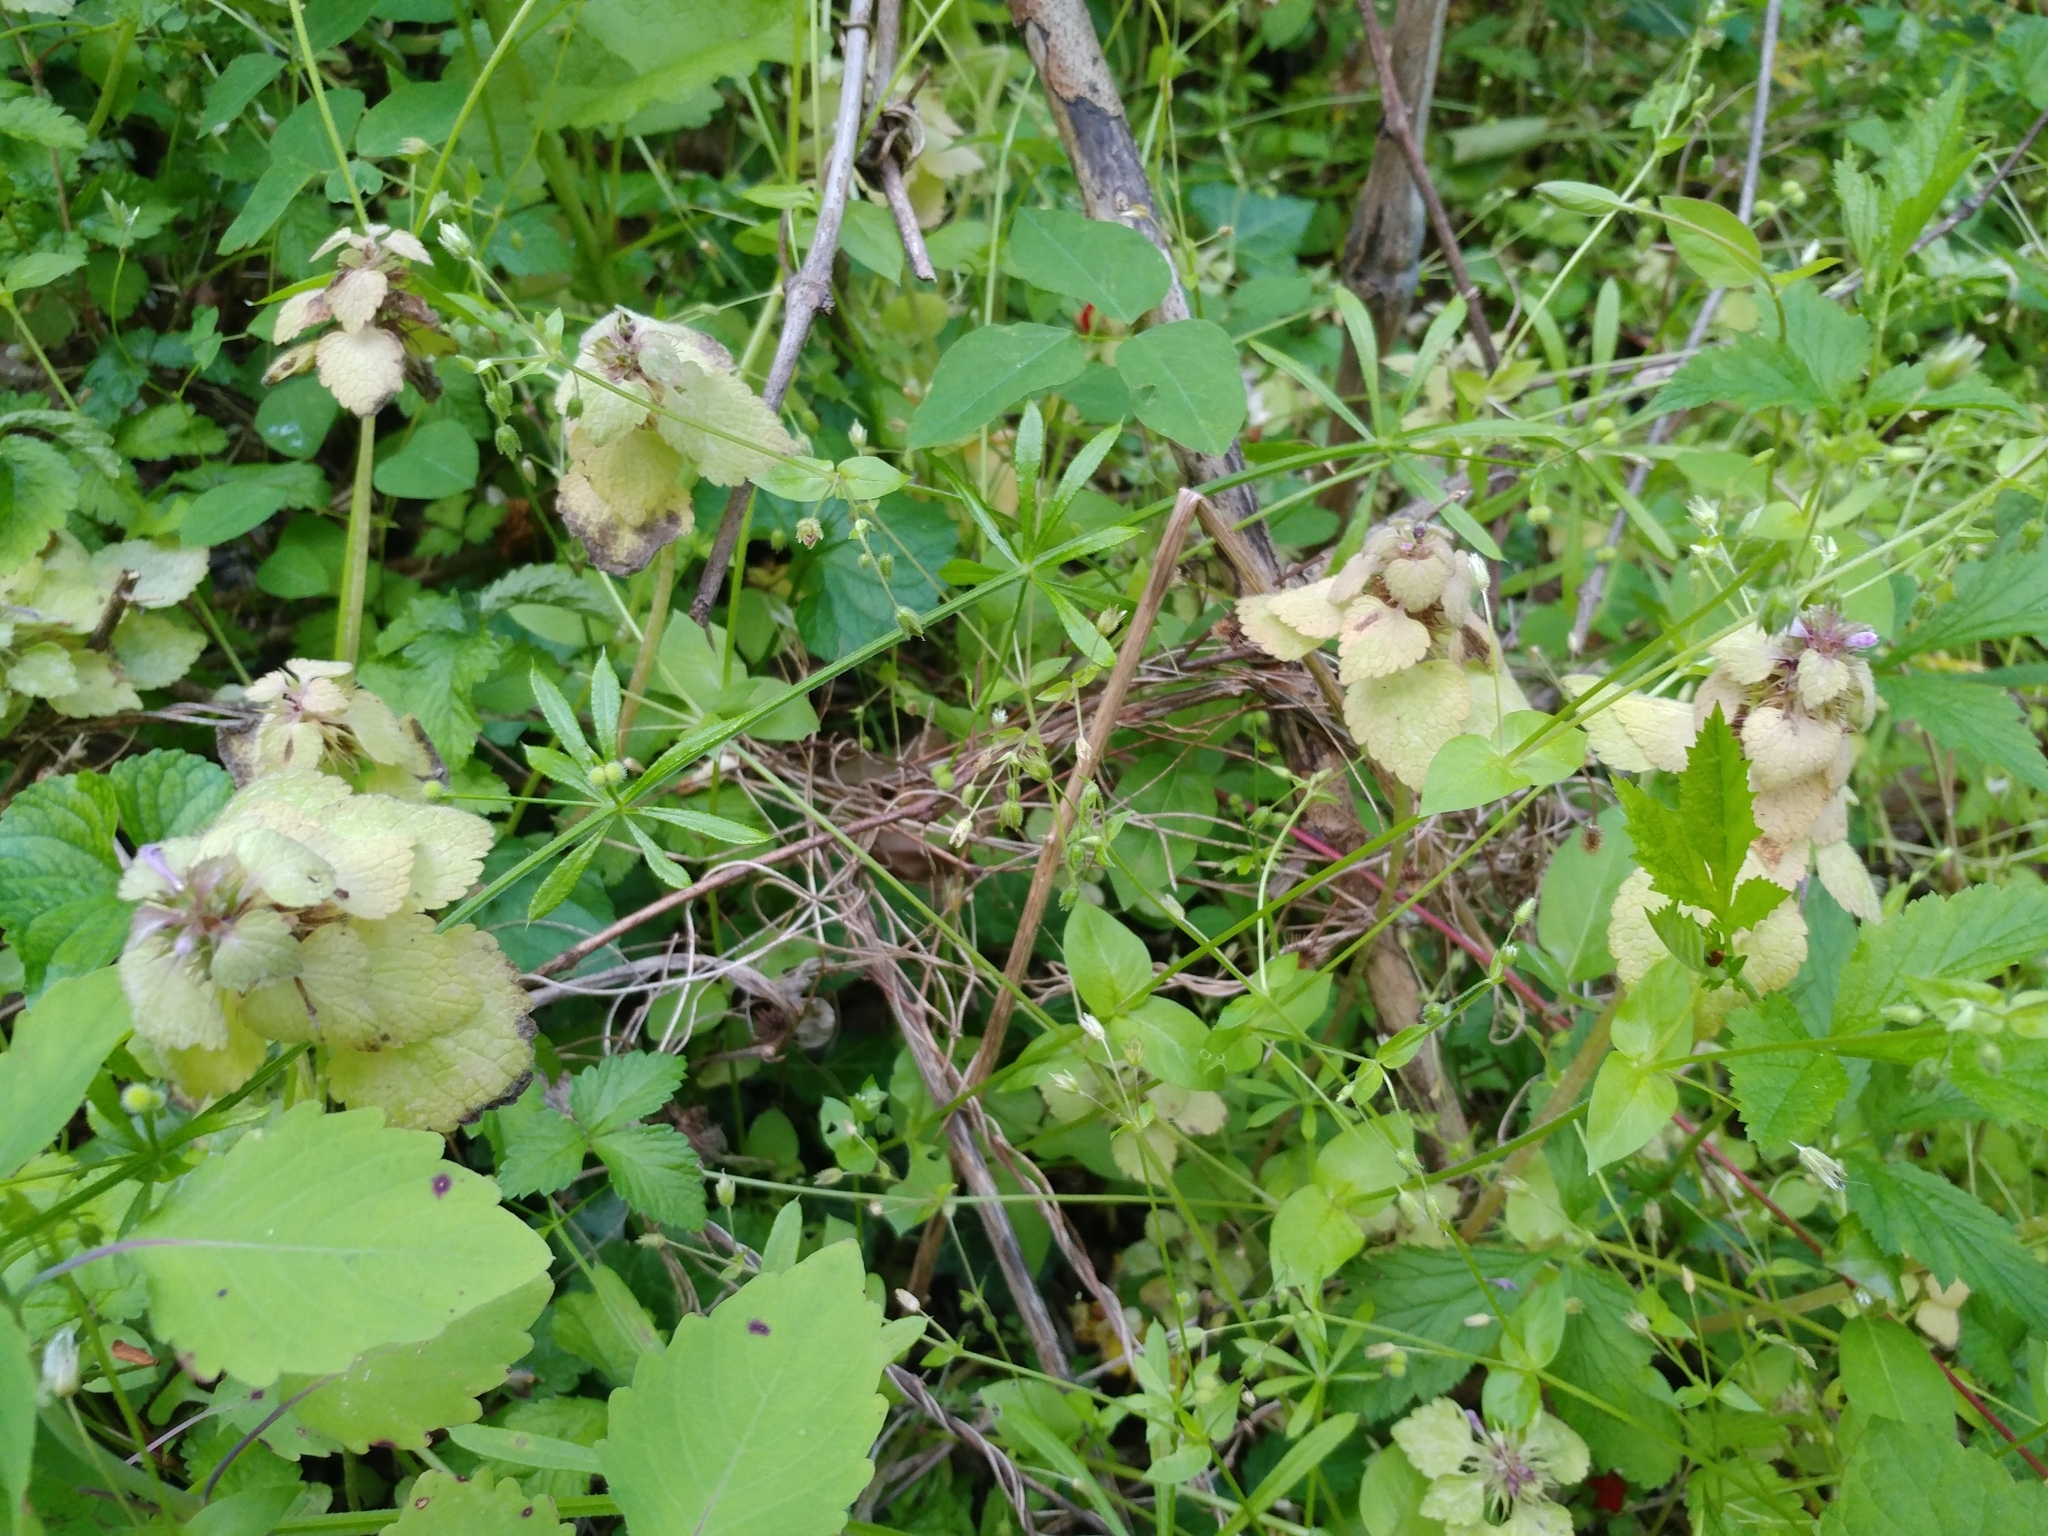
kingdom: Plantae
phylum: Tracheophyta
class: Magnoliopsida
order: Lamiales
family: Lamiaceae
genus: Lamium
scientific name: Lamium purpureum
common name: Red dead-nettle
